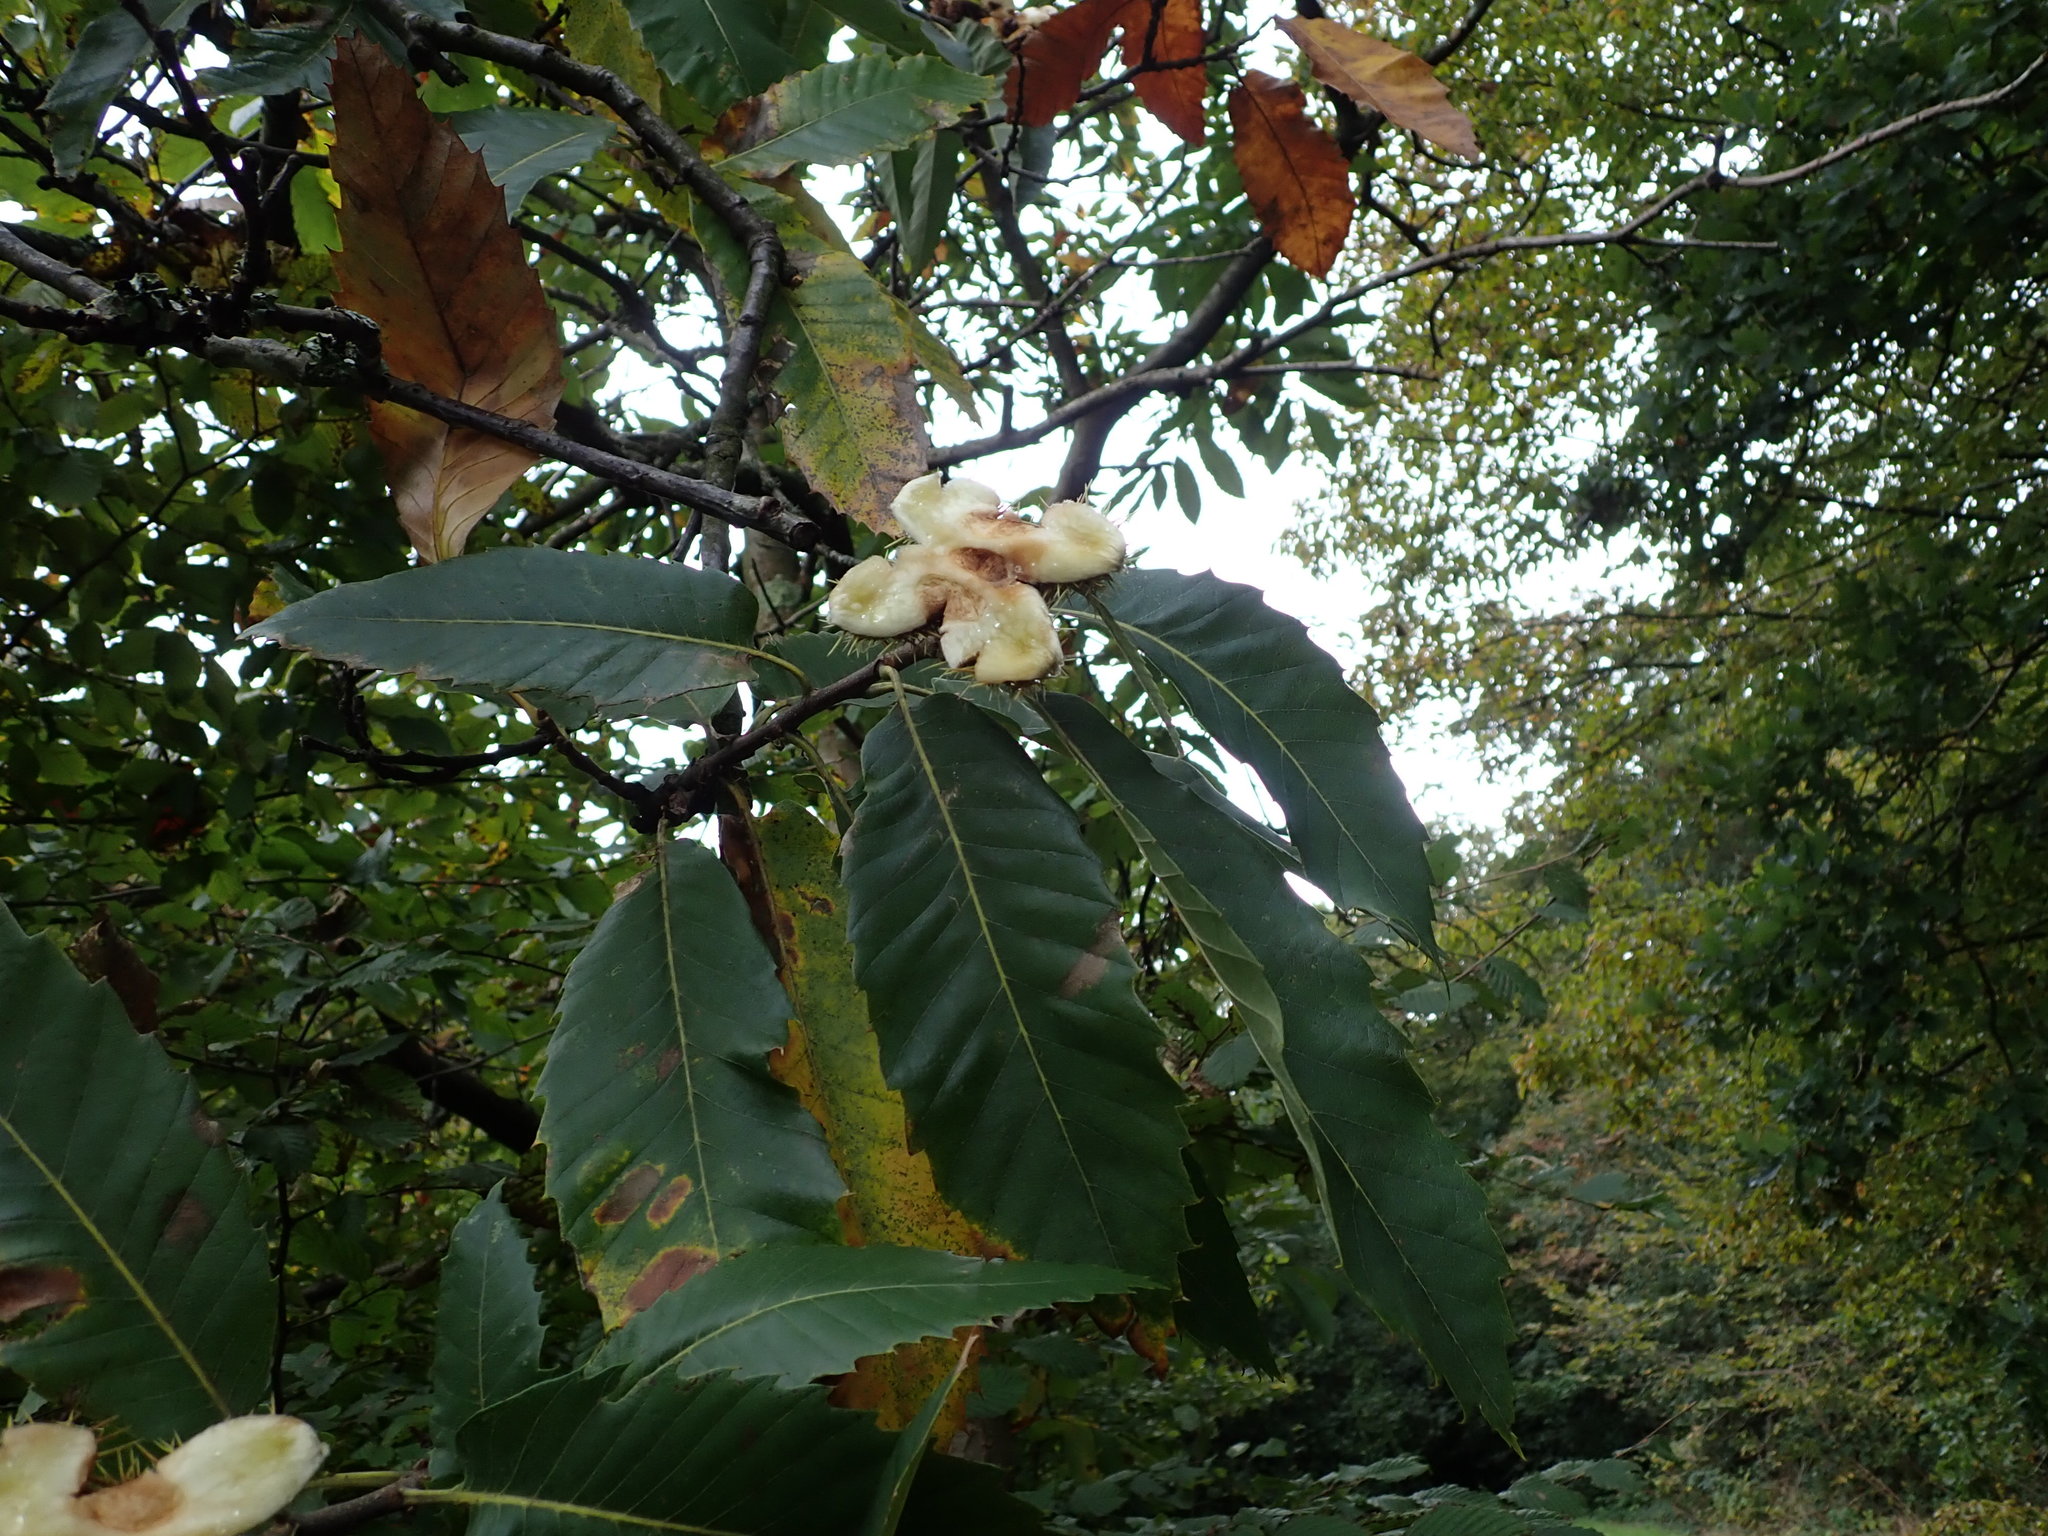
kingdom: Plantae
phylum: Tracheophyta
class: Magnoliopsida
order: Fagales
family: Fagaceae
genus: Castanea
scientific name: Castanea sativa
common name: Sweet chestnut
